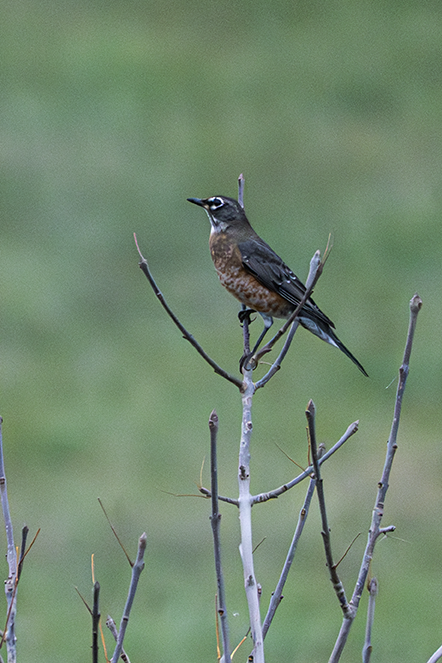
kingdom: Animalia
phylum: Chordata
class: Aves
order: Passeriformes
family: Turdidae
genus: Turdus
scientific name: Turdus migratorius
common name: American robin
